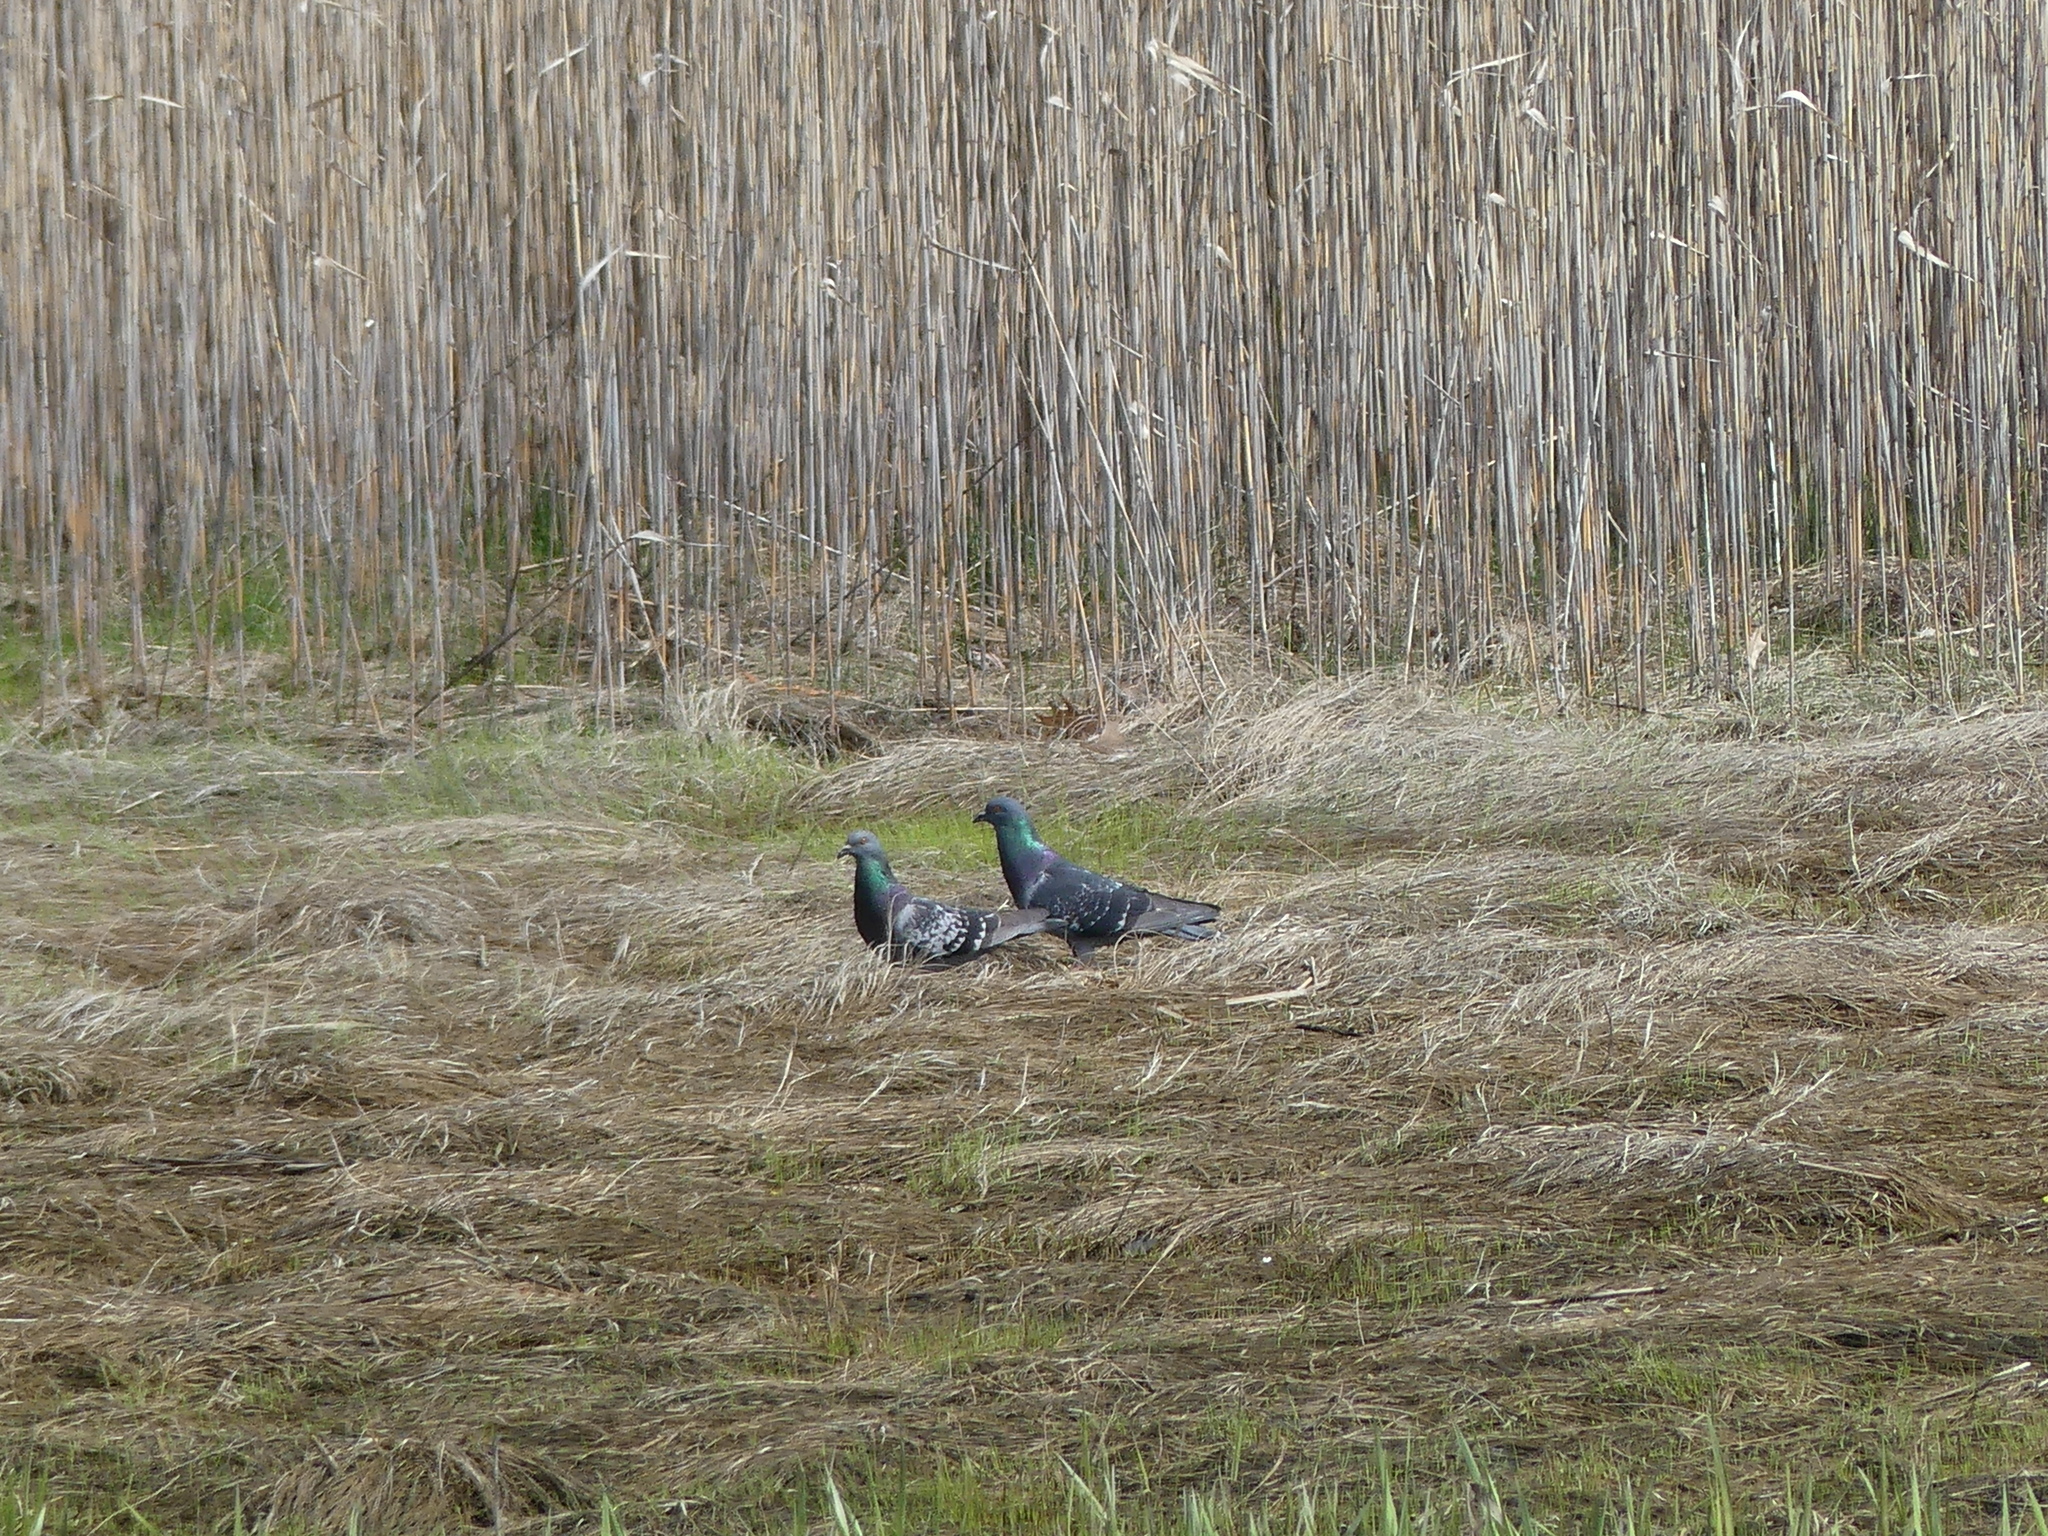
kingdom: Animalia
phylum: Chordata
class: Aves
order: Columbiformes
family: Columbidae
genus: Columba
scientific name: Columba livia
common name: Rock pigeon
